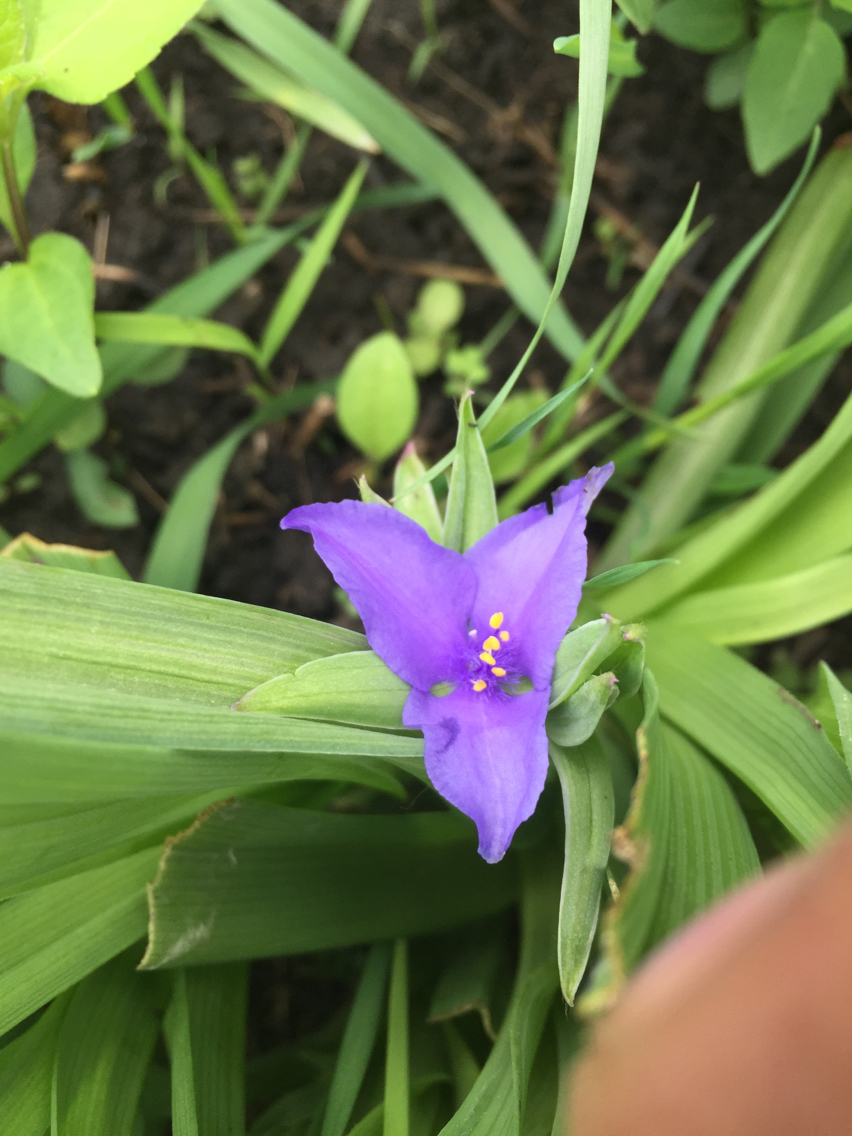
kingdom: Plantae
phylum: Tracheophyta
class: Liliopsida
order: Commelinales
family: Commelinaceae
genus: Tradescantia
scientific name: Tradescantia ohiensis
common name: Ohio spiderwort
